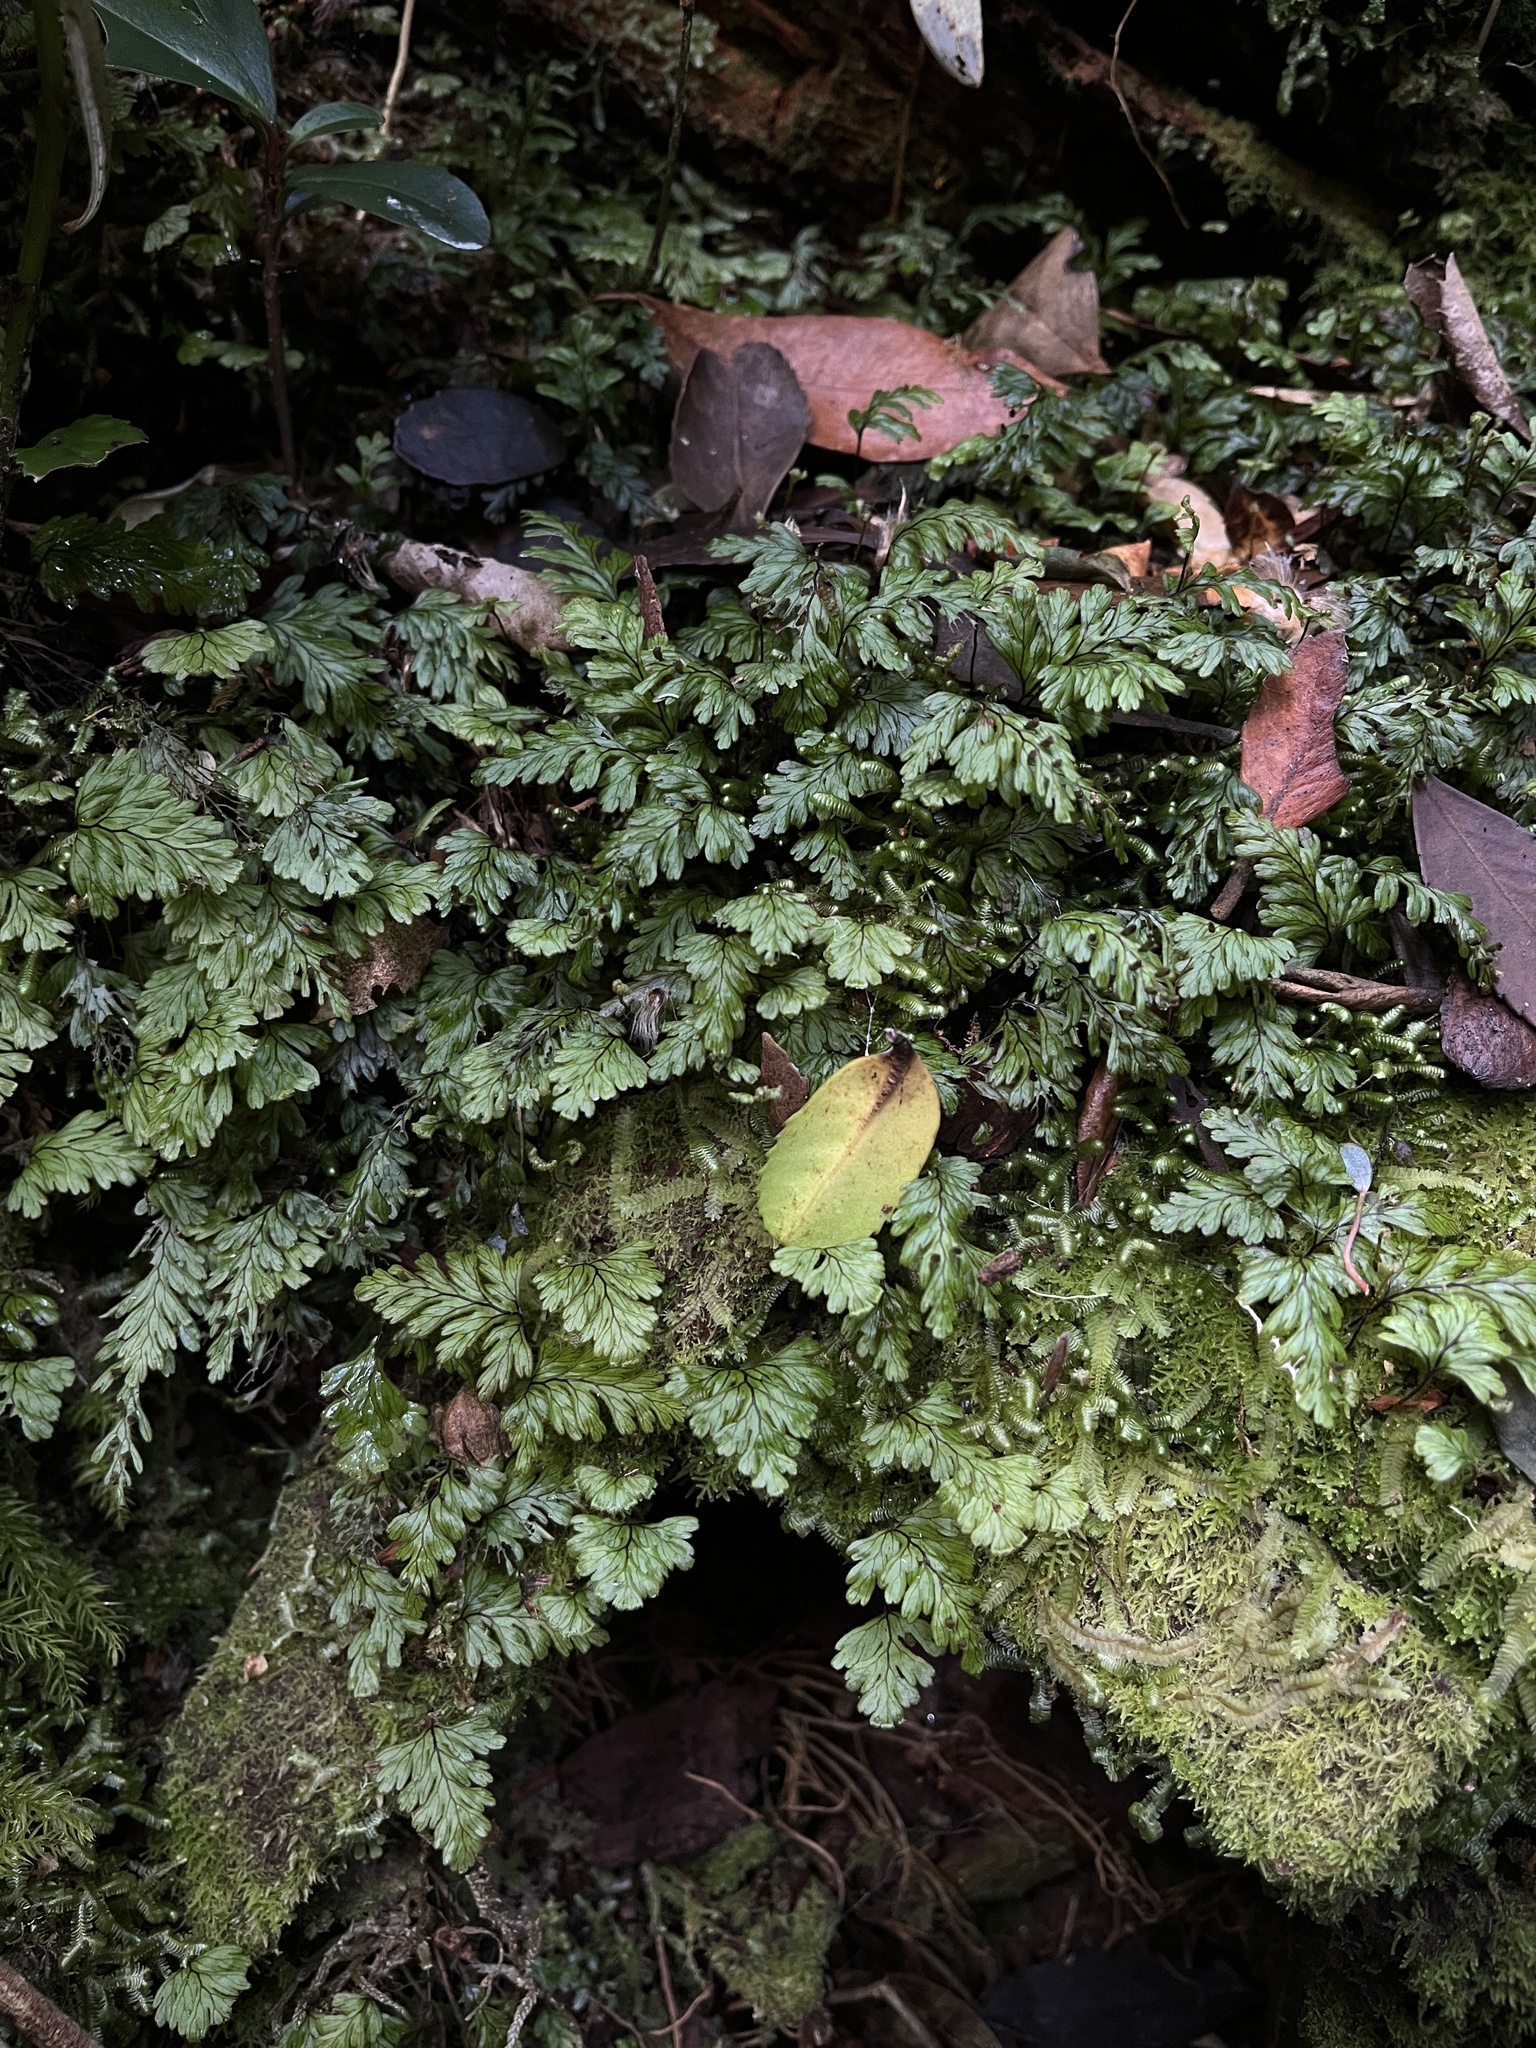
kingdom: Plantae
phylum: Tracheophyta
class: Polypodiopsida
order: Hymenophyllales
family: Hymenophyllaceae
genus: Hymenophyllum
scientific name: Hymenophyllum dicranotrichum
